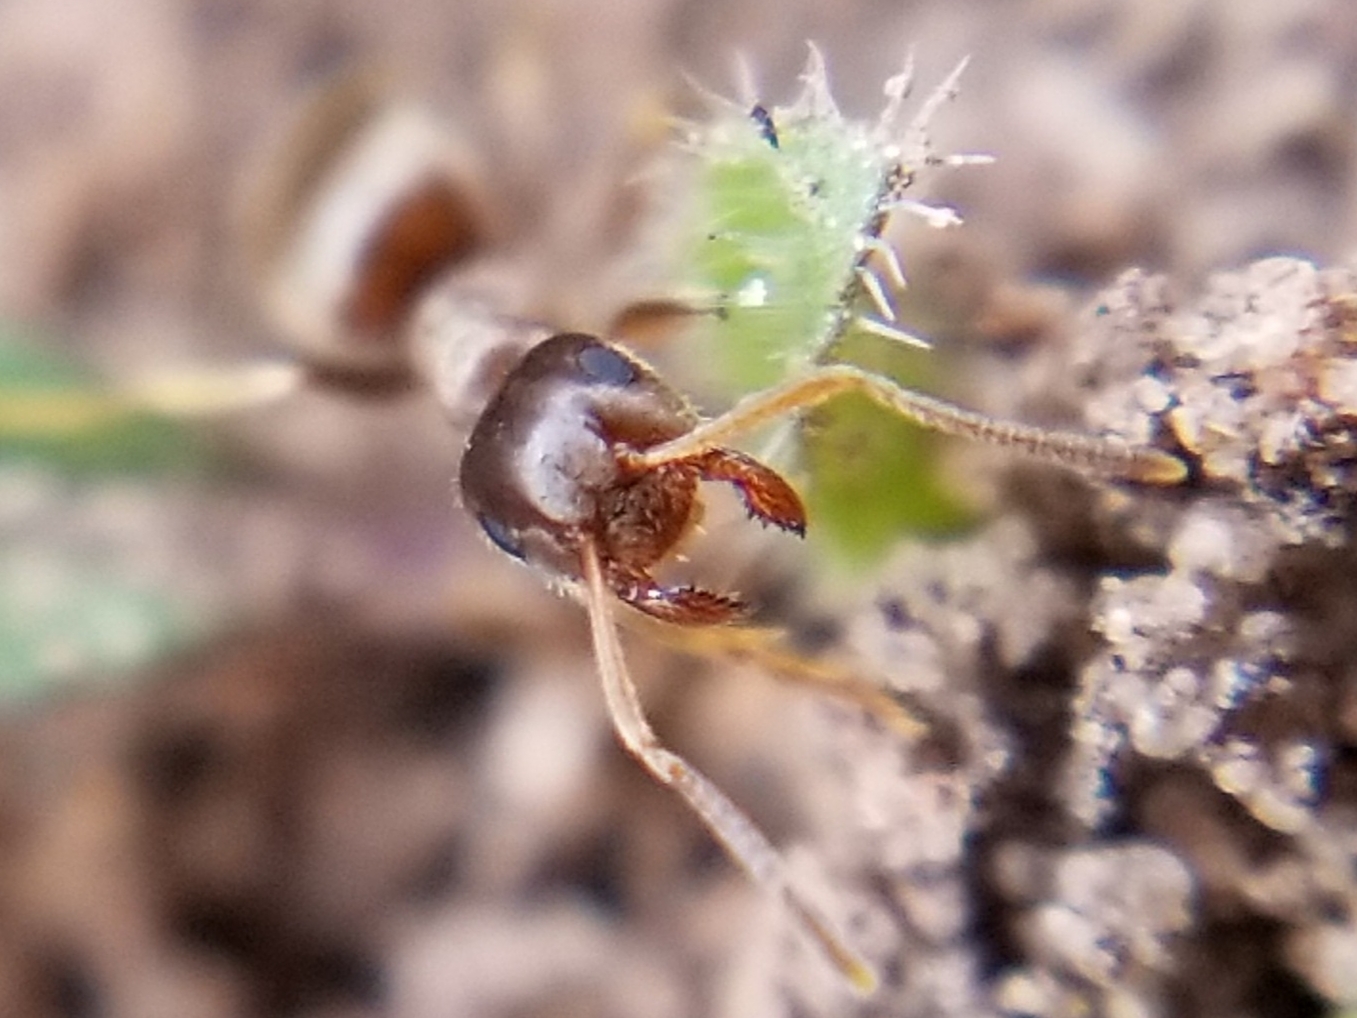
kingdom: Animalia
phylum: Arthropoda
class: Insecta
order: Hymenoptera
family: Formicidae
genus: Lasius
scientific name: Lasius pallitarsis
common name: Subterranean aphid-tending ant
